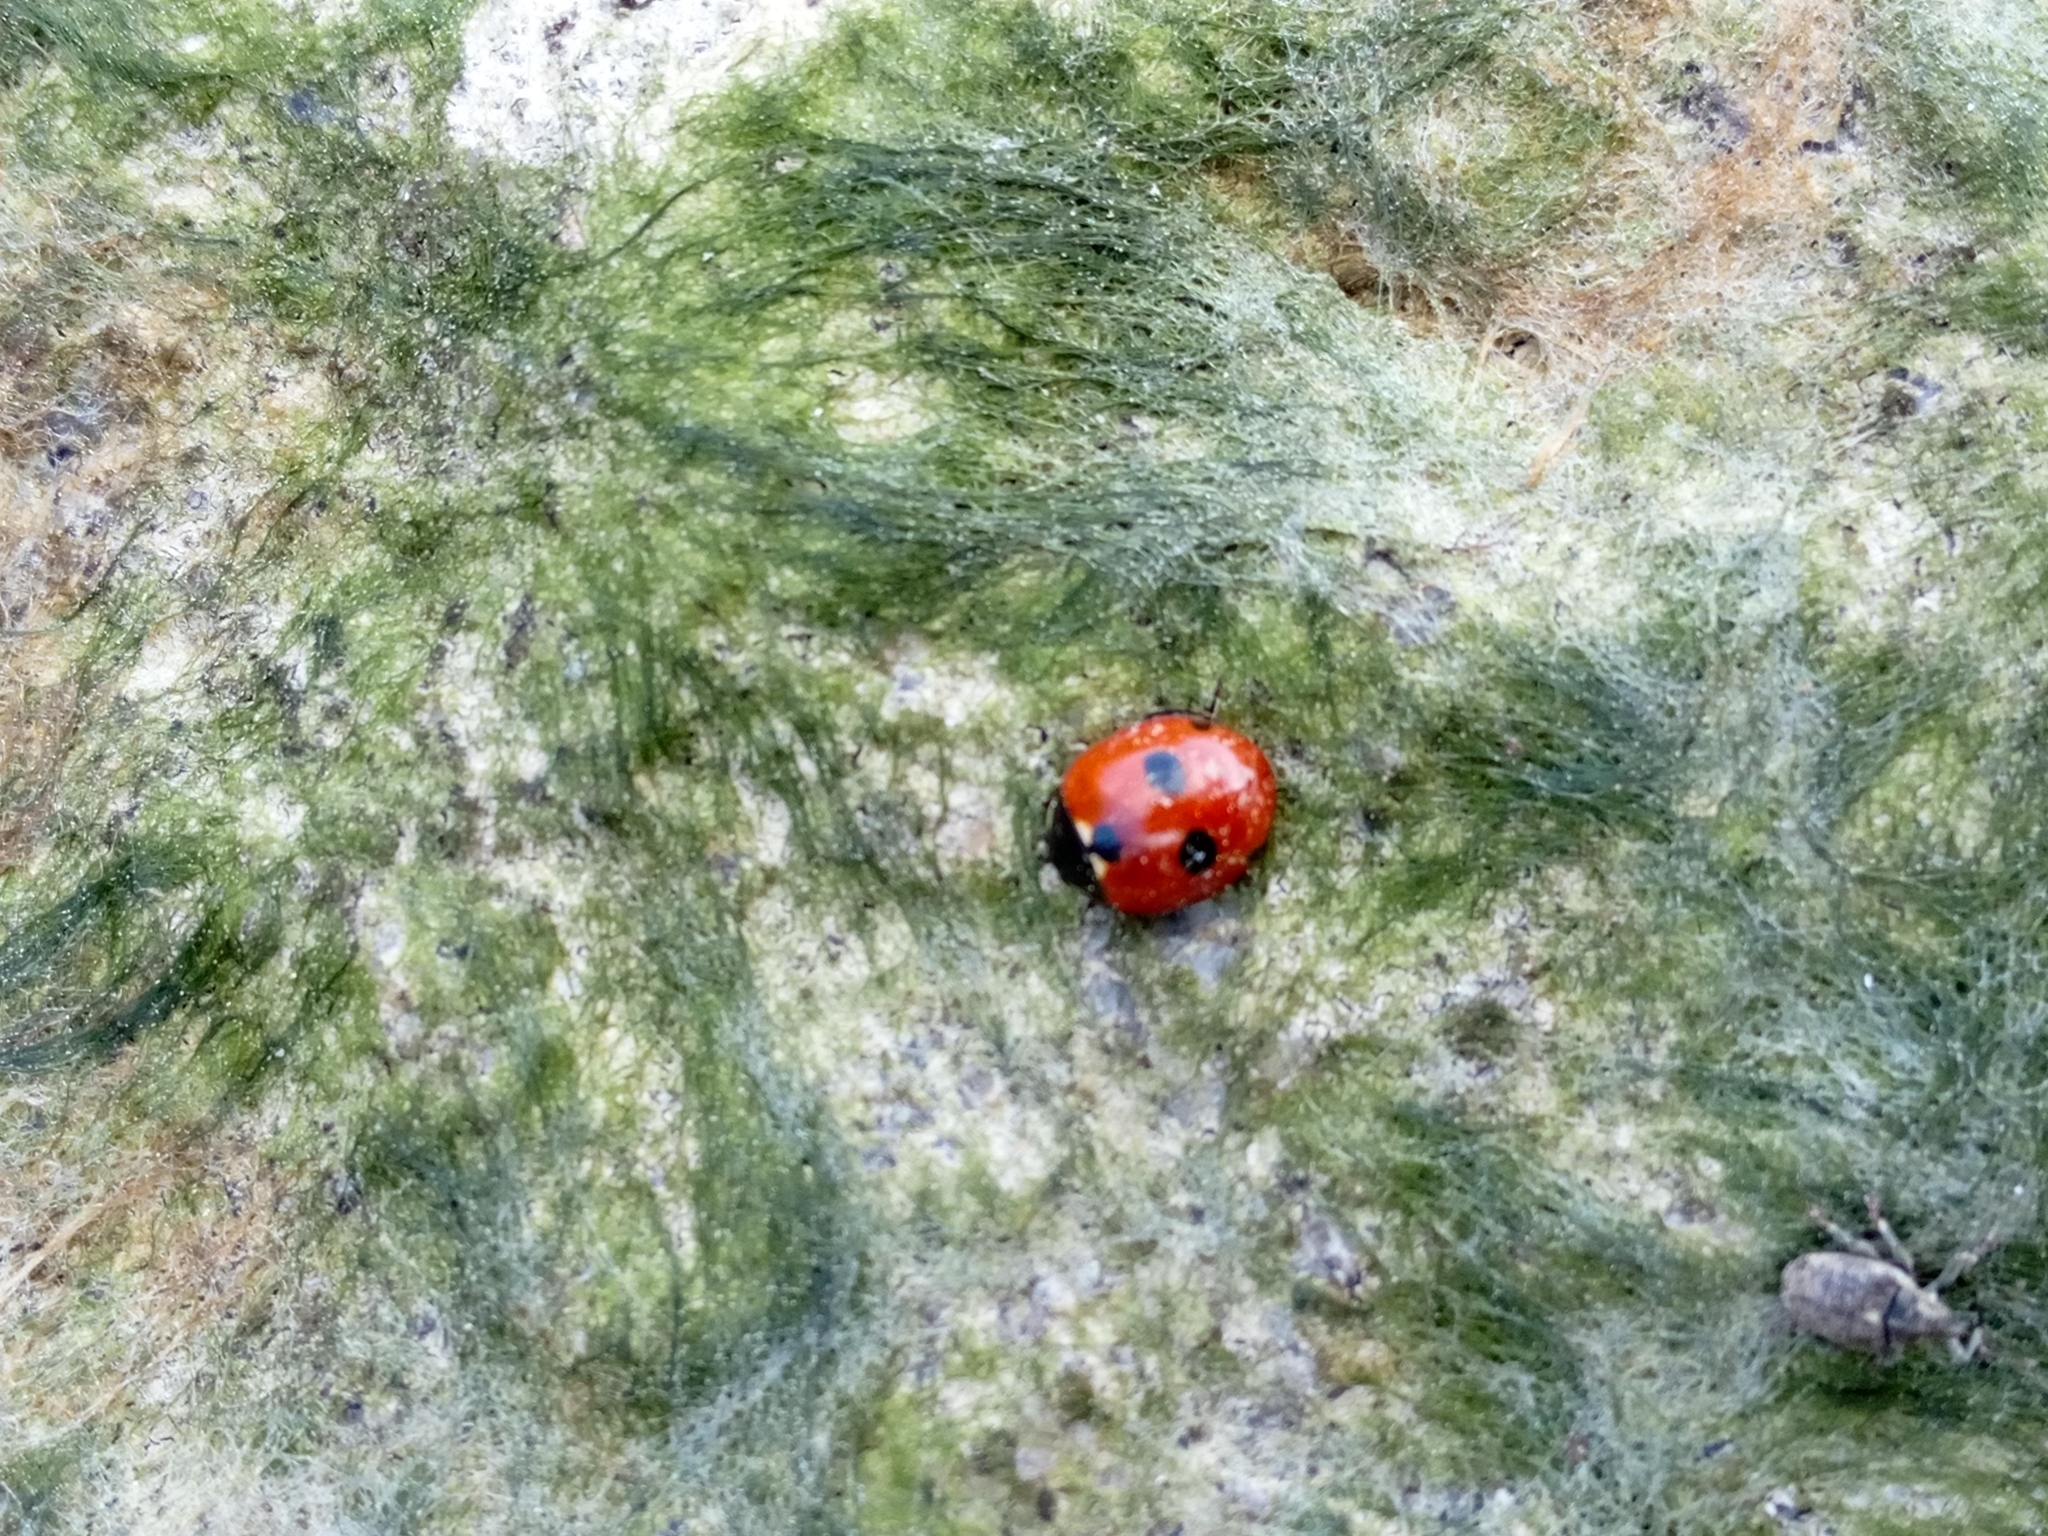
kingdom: Animalia
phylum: Arthropoda
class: Insecta
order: Coleoptera
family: Coccinellidae
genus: Coccinella
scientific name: Coccinella quinquepunctata
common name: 5-spot ladybird
